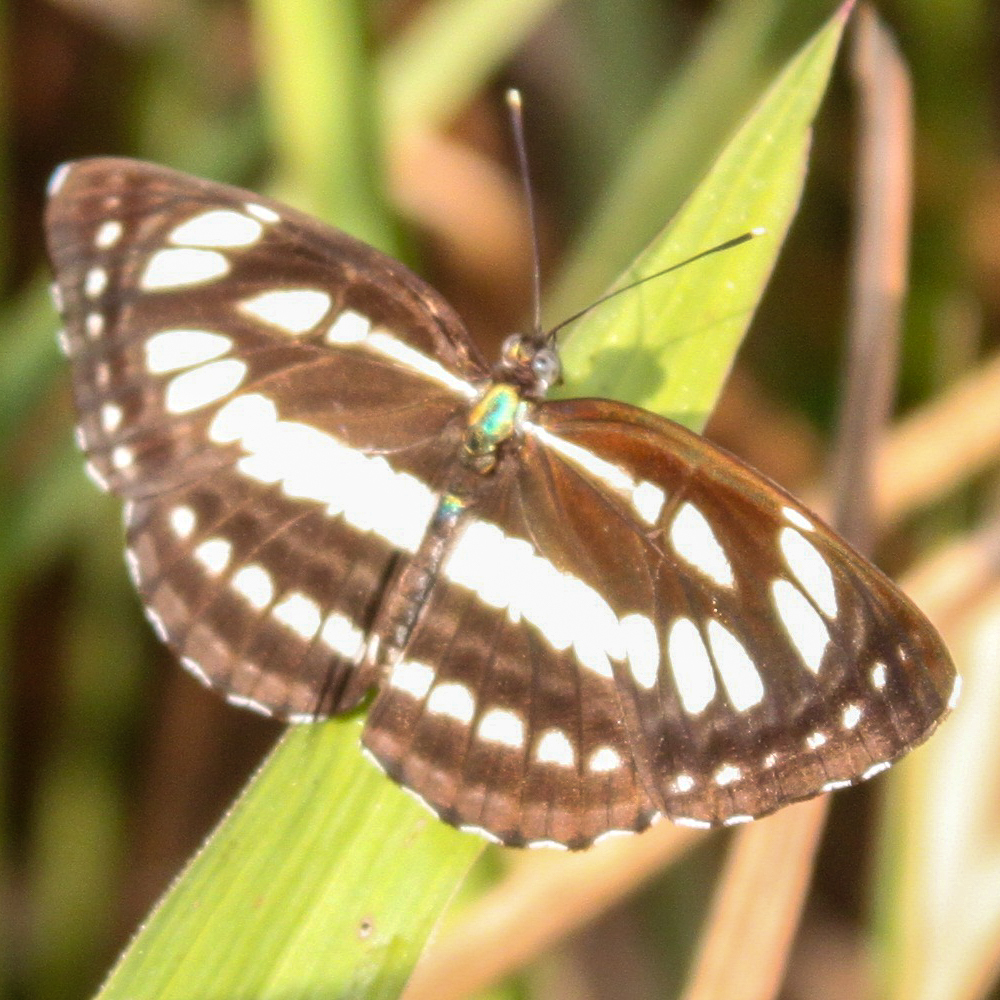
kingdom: Animalia
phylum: Arthropoda
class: Insecta
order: Lepidoptera
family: Nymphalidae
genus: Neptis
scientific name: Neptis hylas
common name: Common sailer
